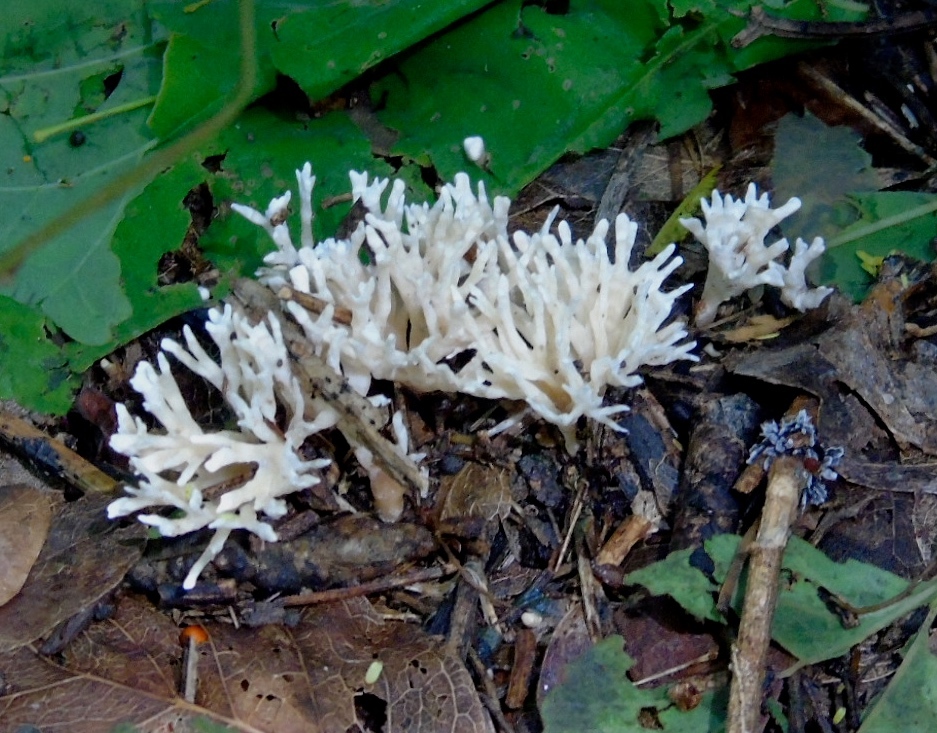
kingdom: Fungi
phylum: Basidiomycota
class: Agaricomycetes
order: Sebacinales
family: Sebacinaceae
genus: Sebacina
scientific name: Sebacina schweinitzii
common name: Jellied false coral fungus
